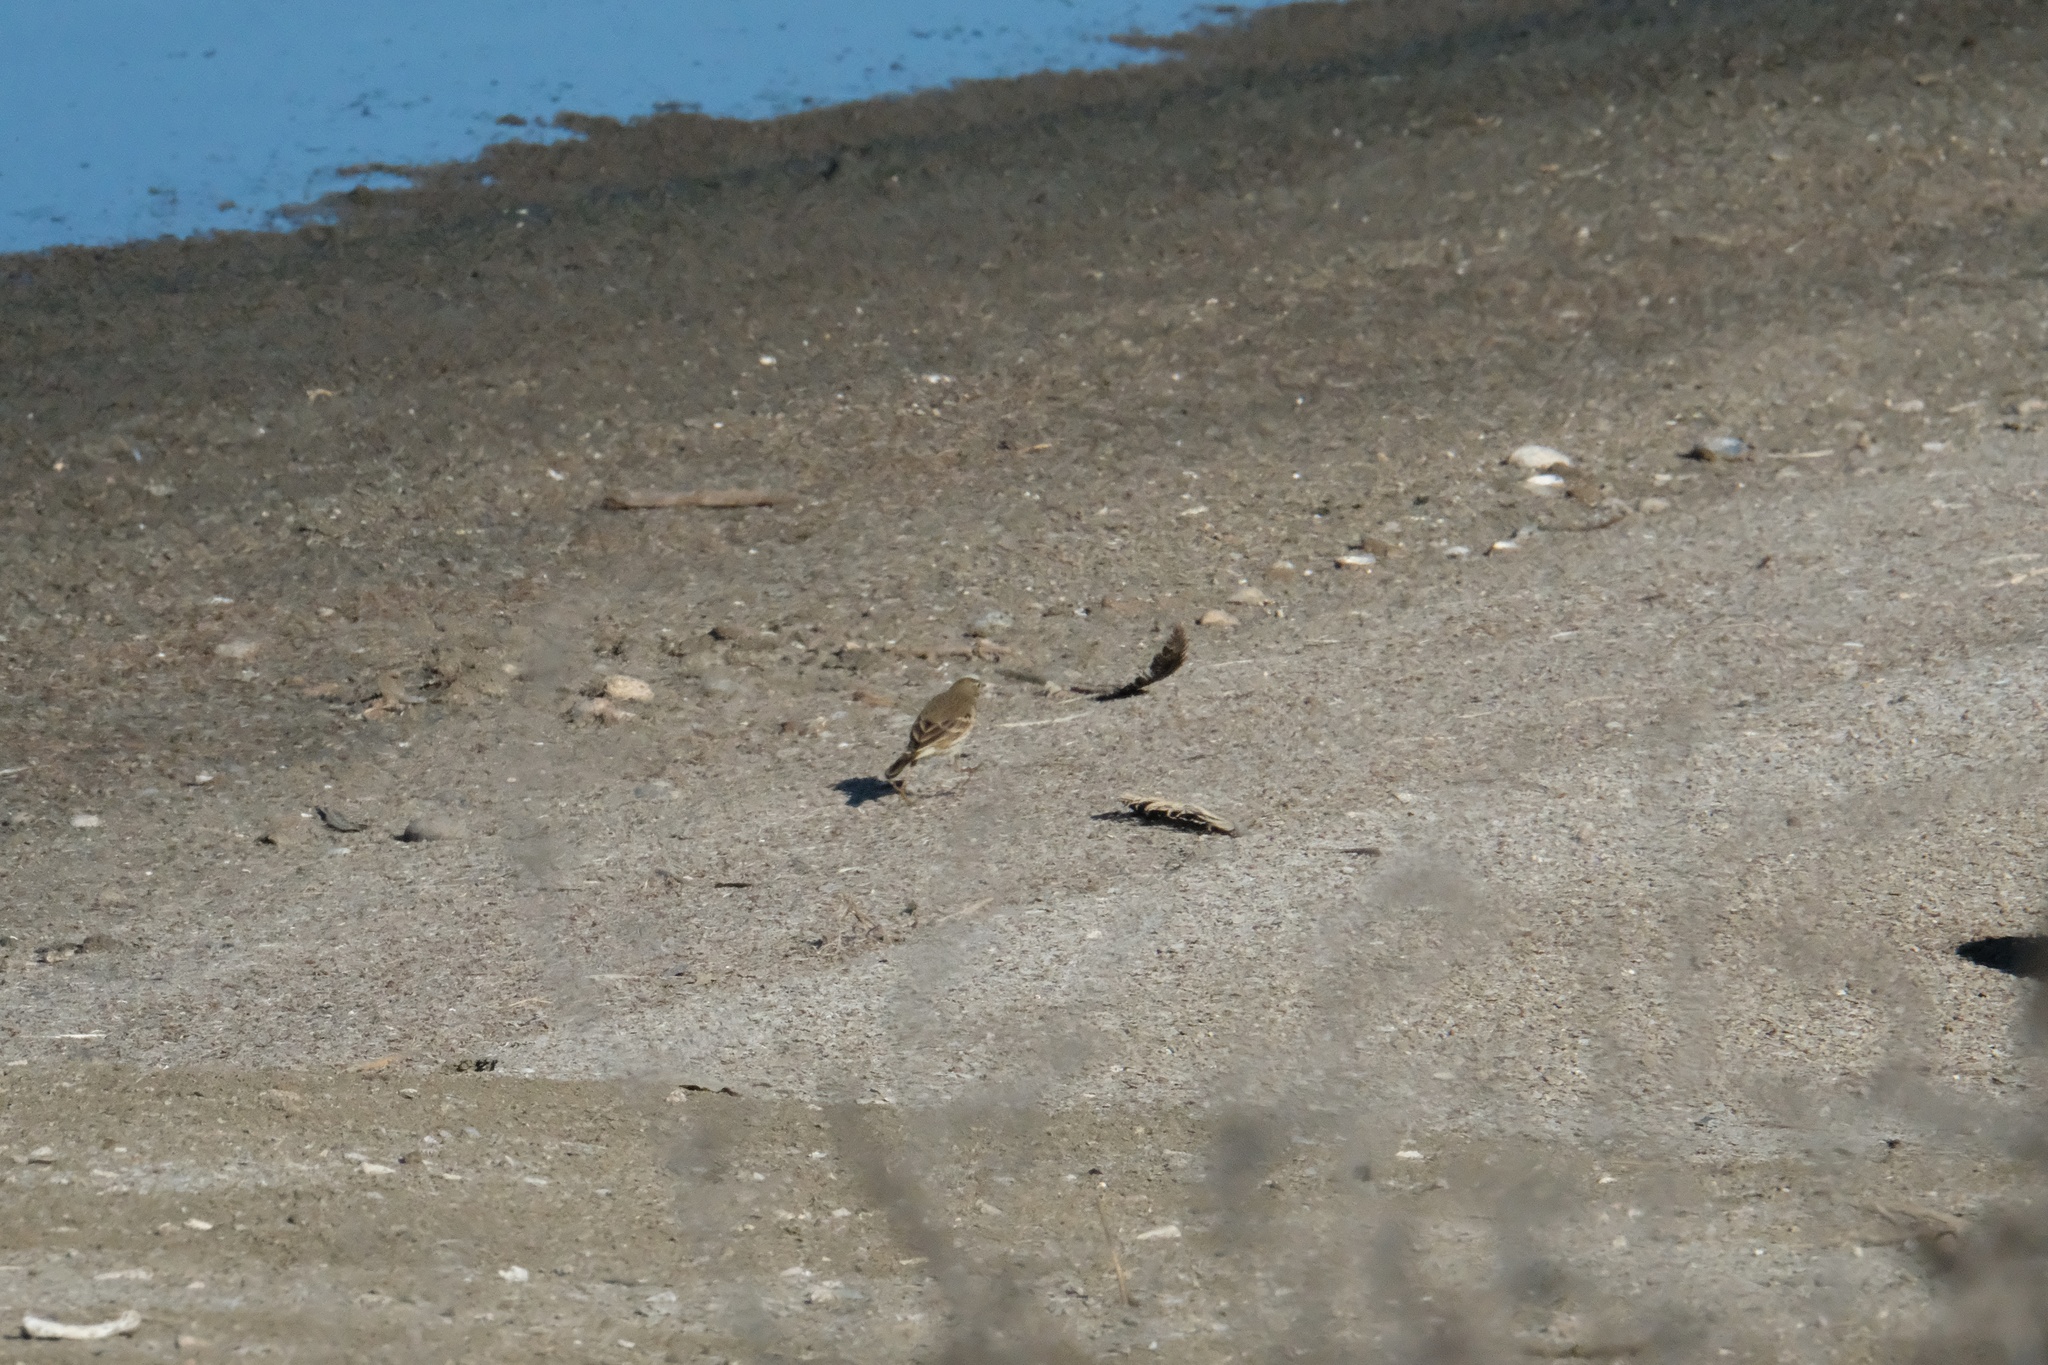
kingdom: Animalia
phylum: Chordata
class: Aves
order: Passeriformes
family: Motacillidae
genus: Anthus
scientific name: Anthus rubescens
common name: Buff-bellied pipit
